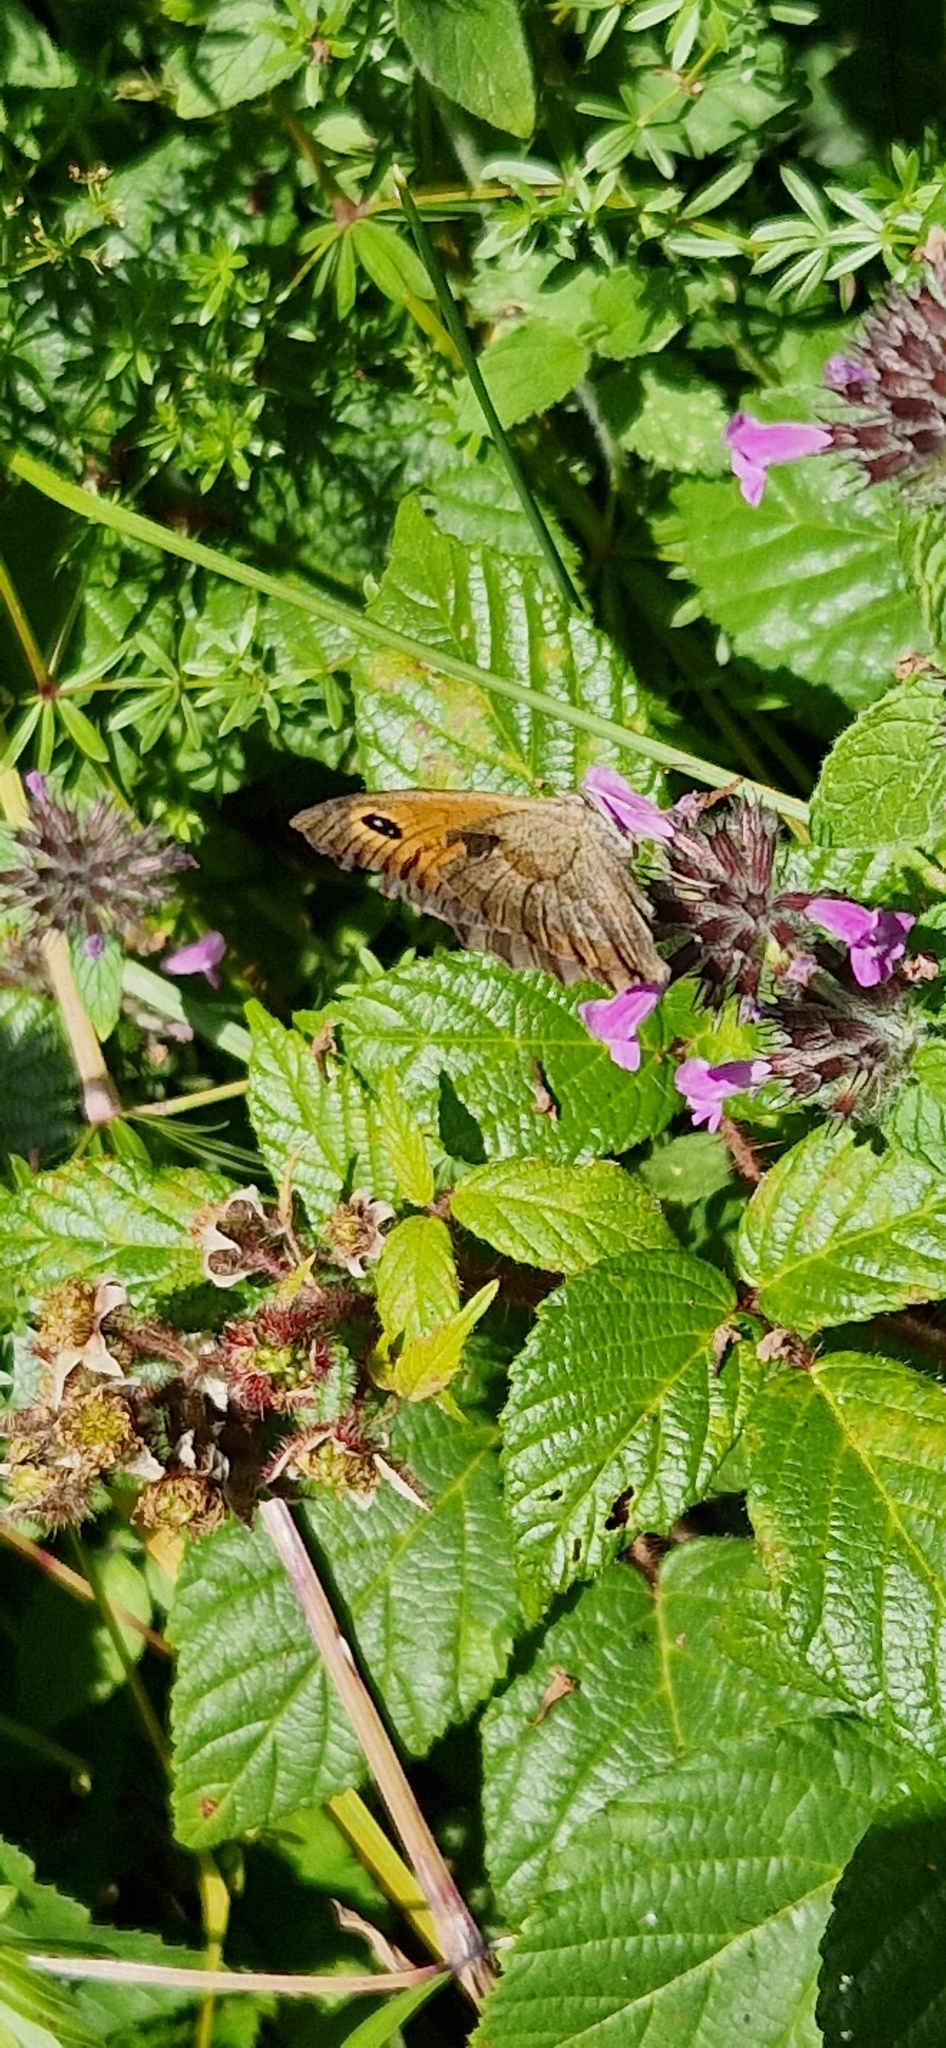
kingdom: Animalia
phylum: Arthropoda
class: Insecta
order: Lepidoptera
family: Nymphalidae
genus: Maniola
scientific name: Maniola jurtina
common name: Meadow brown
